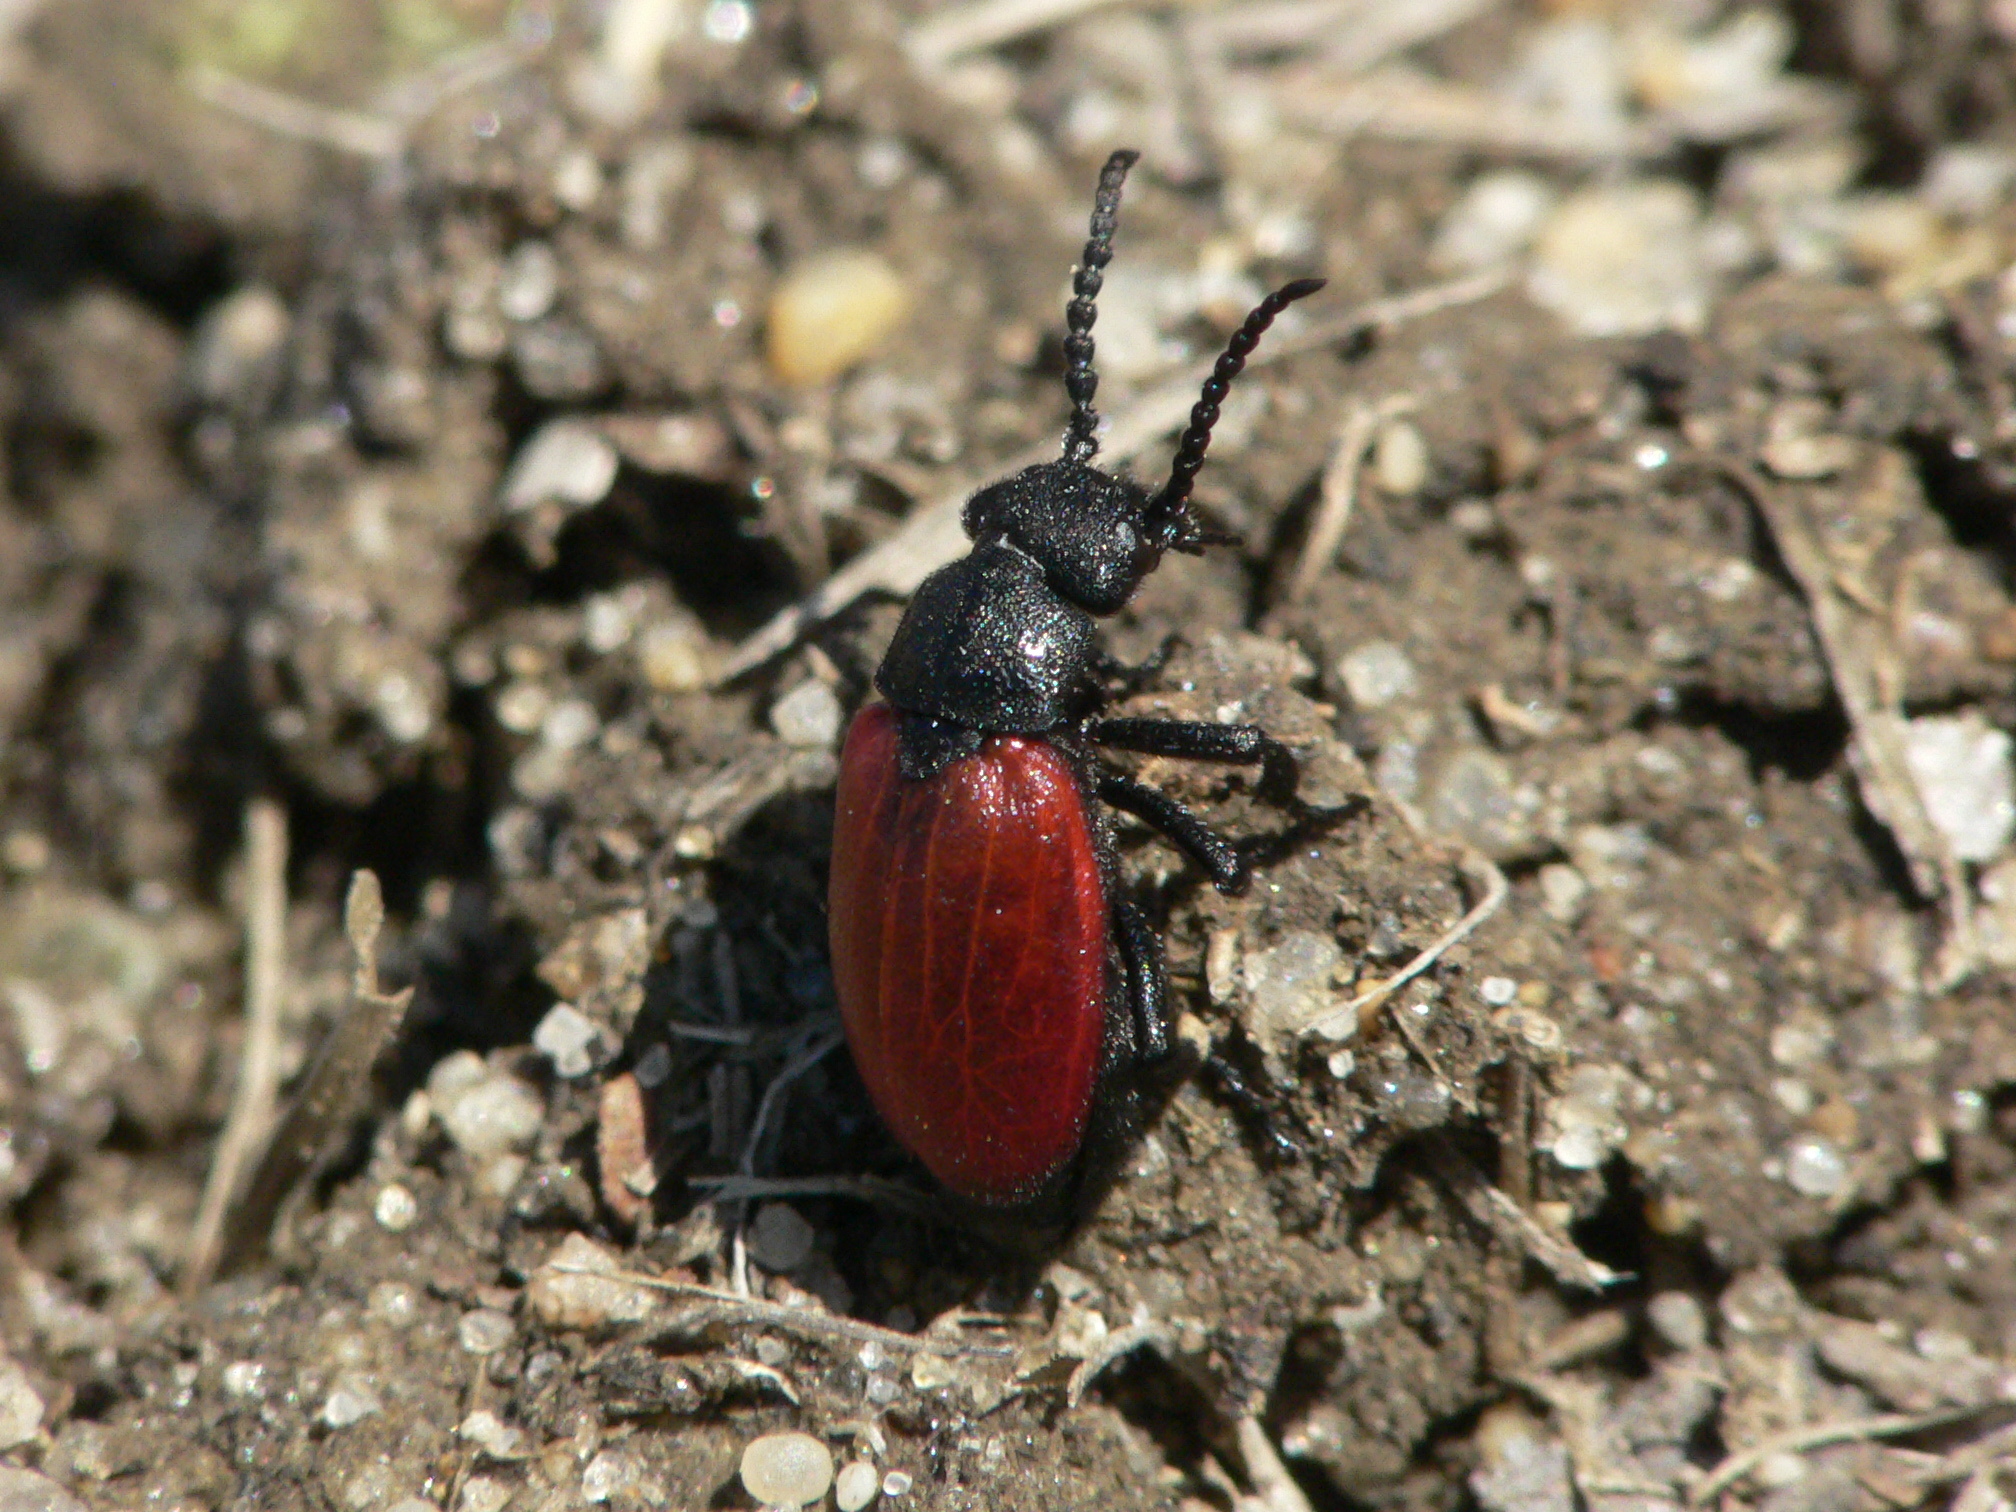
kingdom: Animalia
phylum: Arthropoda
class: Insecta
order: Coleoptera
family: Meloidae
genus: Tricrania
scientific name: Tricrania sanguinipennis
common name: Blood-winged blister beetle
